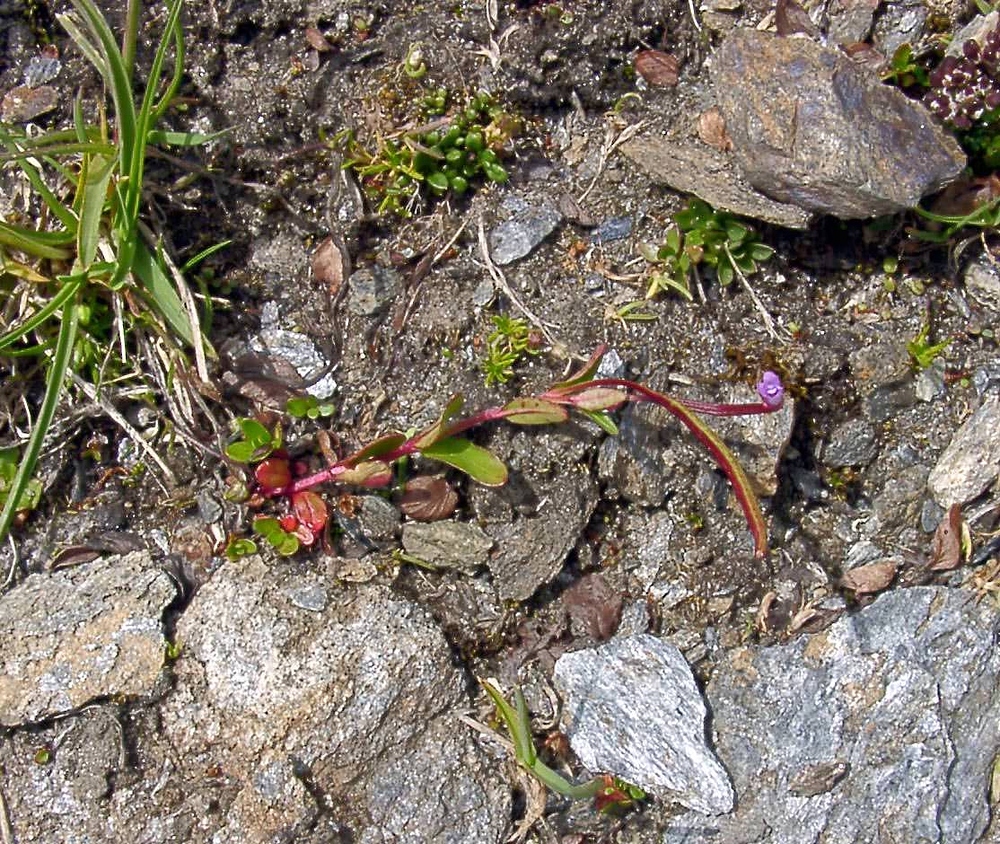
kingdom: Plantae
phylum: Tracheophyta
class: Magnoliopsida
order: Myrtales
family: Onagraceae
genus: Epilobium
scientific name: Epilobium anagallidifolium
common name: Alpine willowherb
